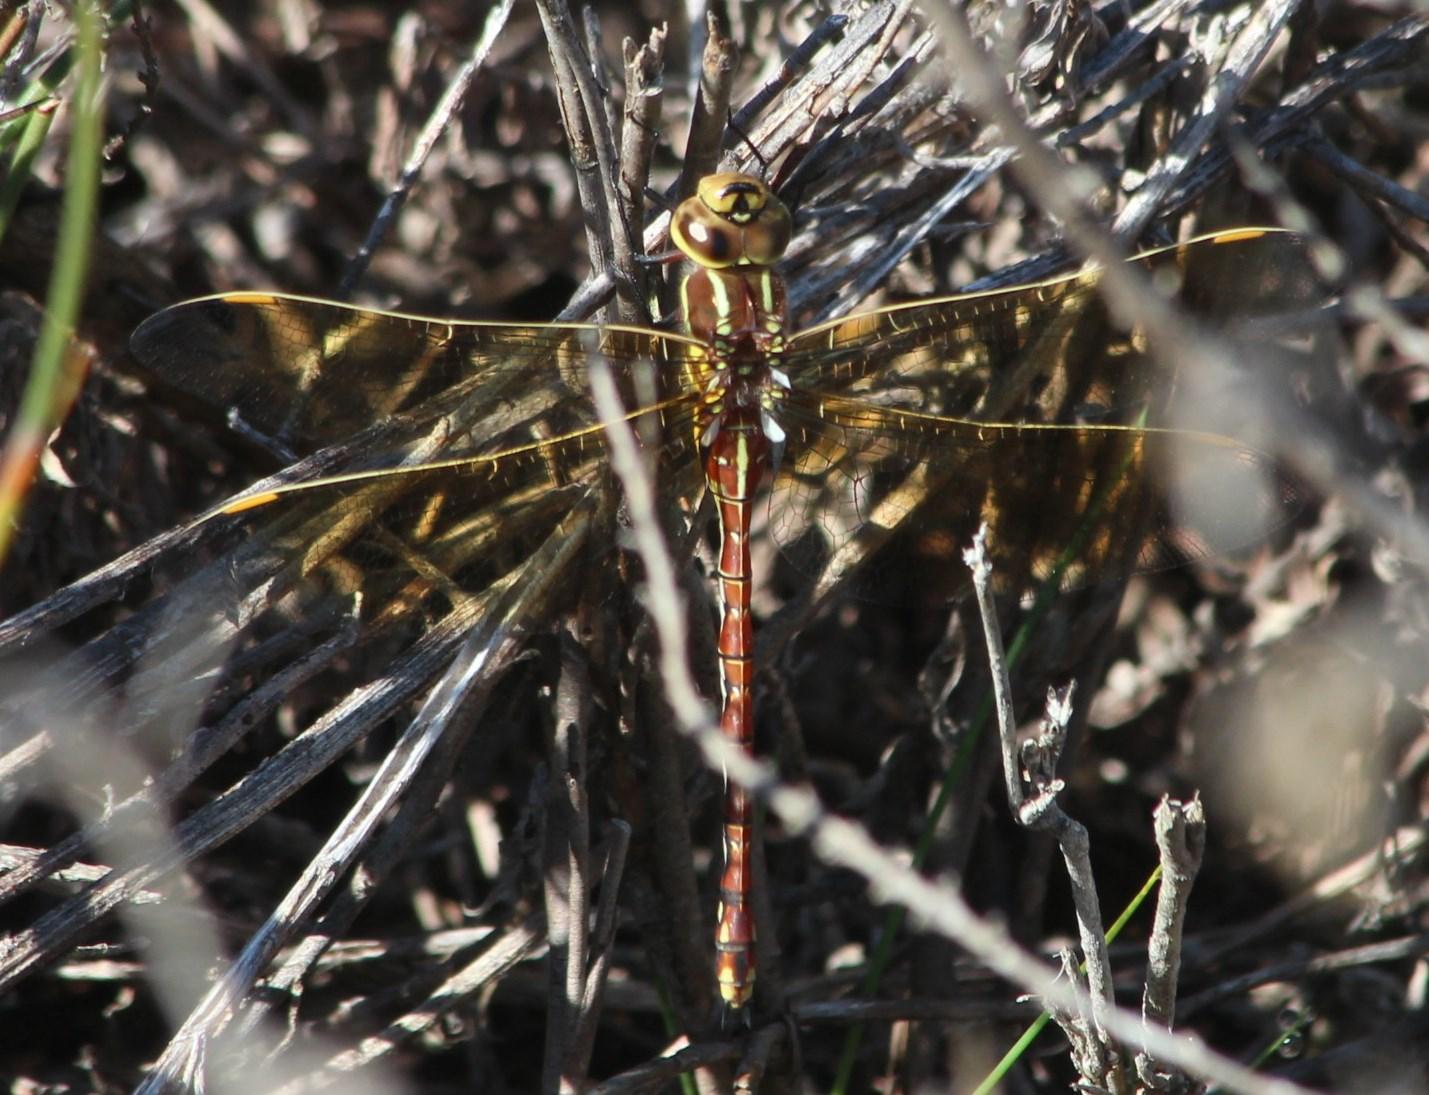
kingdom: Animalia
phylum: Arthropoda
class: Insecta
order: Odonata
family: Aeshnidae
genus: Zosteraeschna
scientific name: Zosteraeschna minuscula
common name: Friendly hawker
